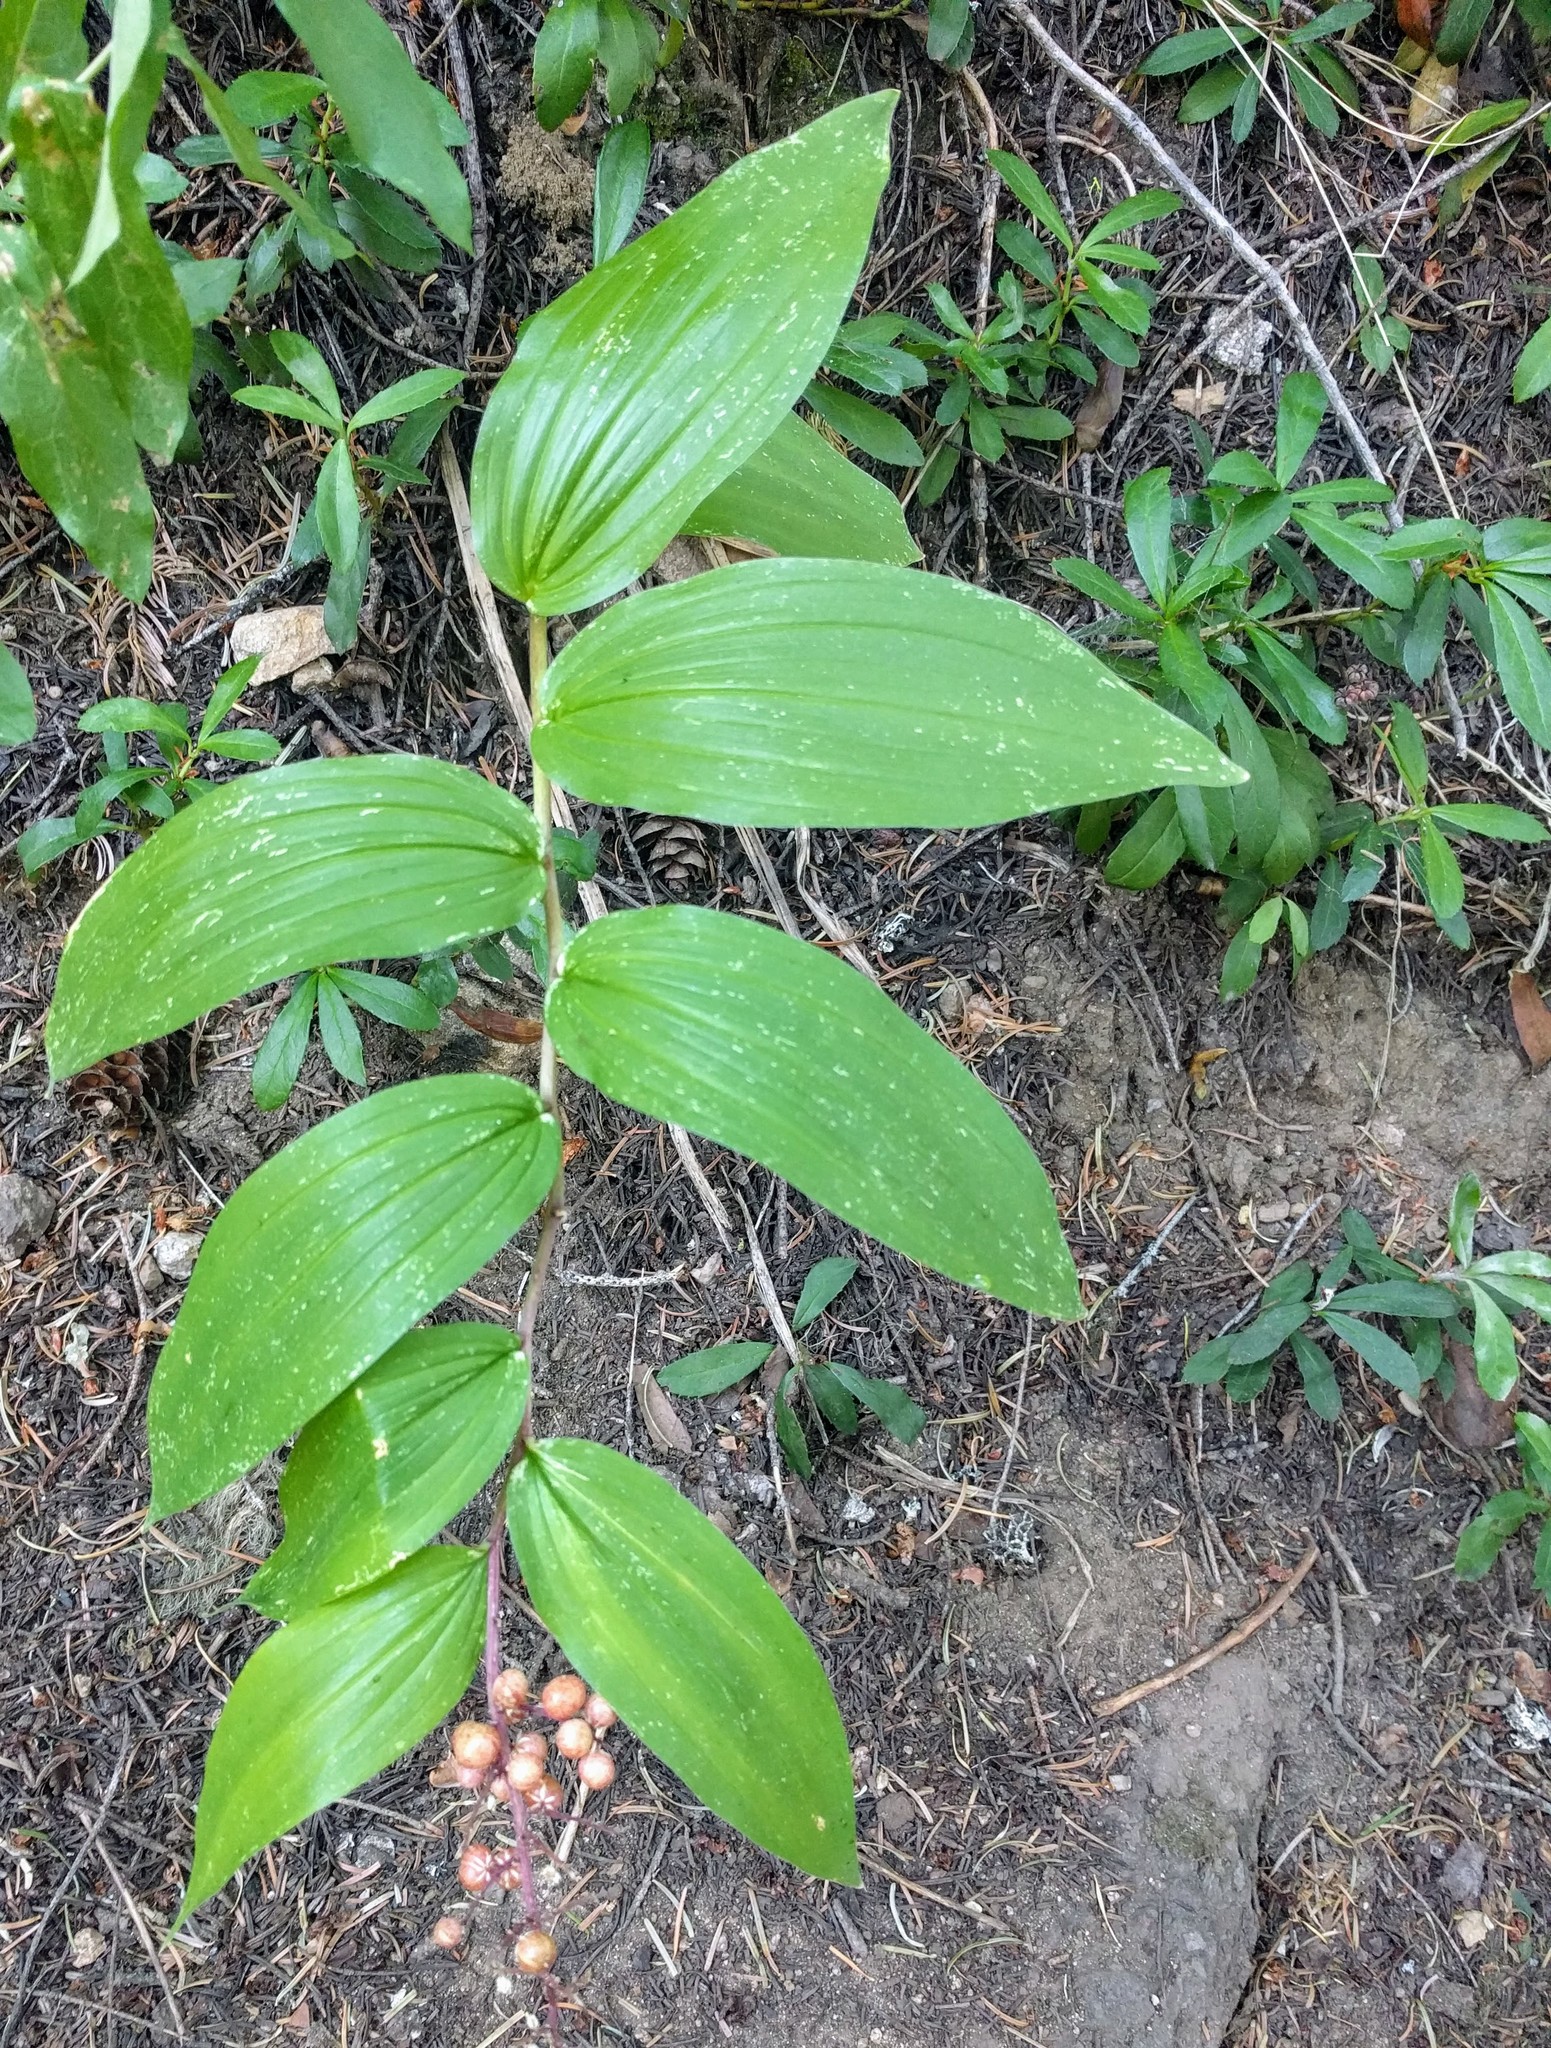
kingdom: Plantae
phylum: Tracheophyta
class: Liliopsida
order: Asparagales
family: Asparagaceae
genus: Maianthemum
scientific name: Maianthemum racemosum
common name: False spikenard
